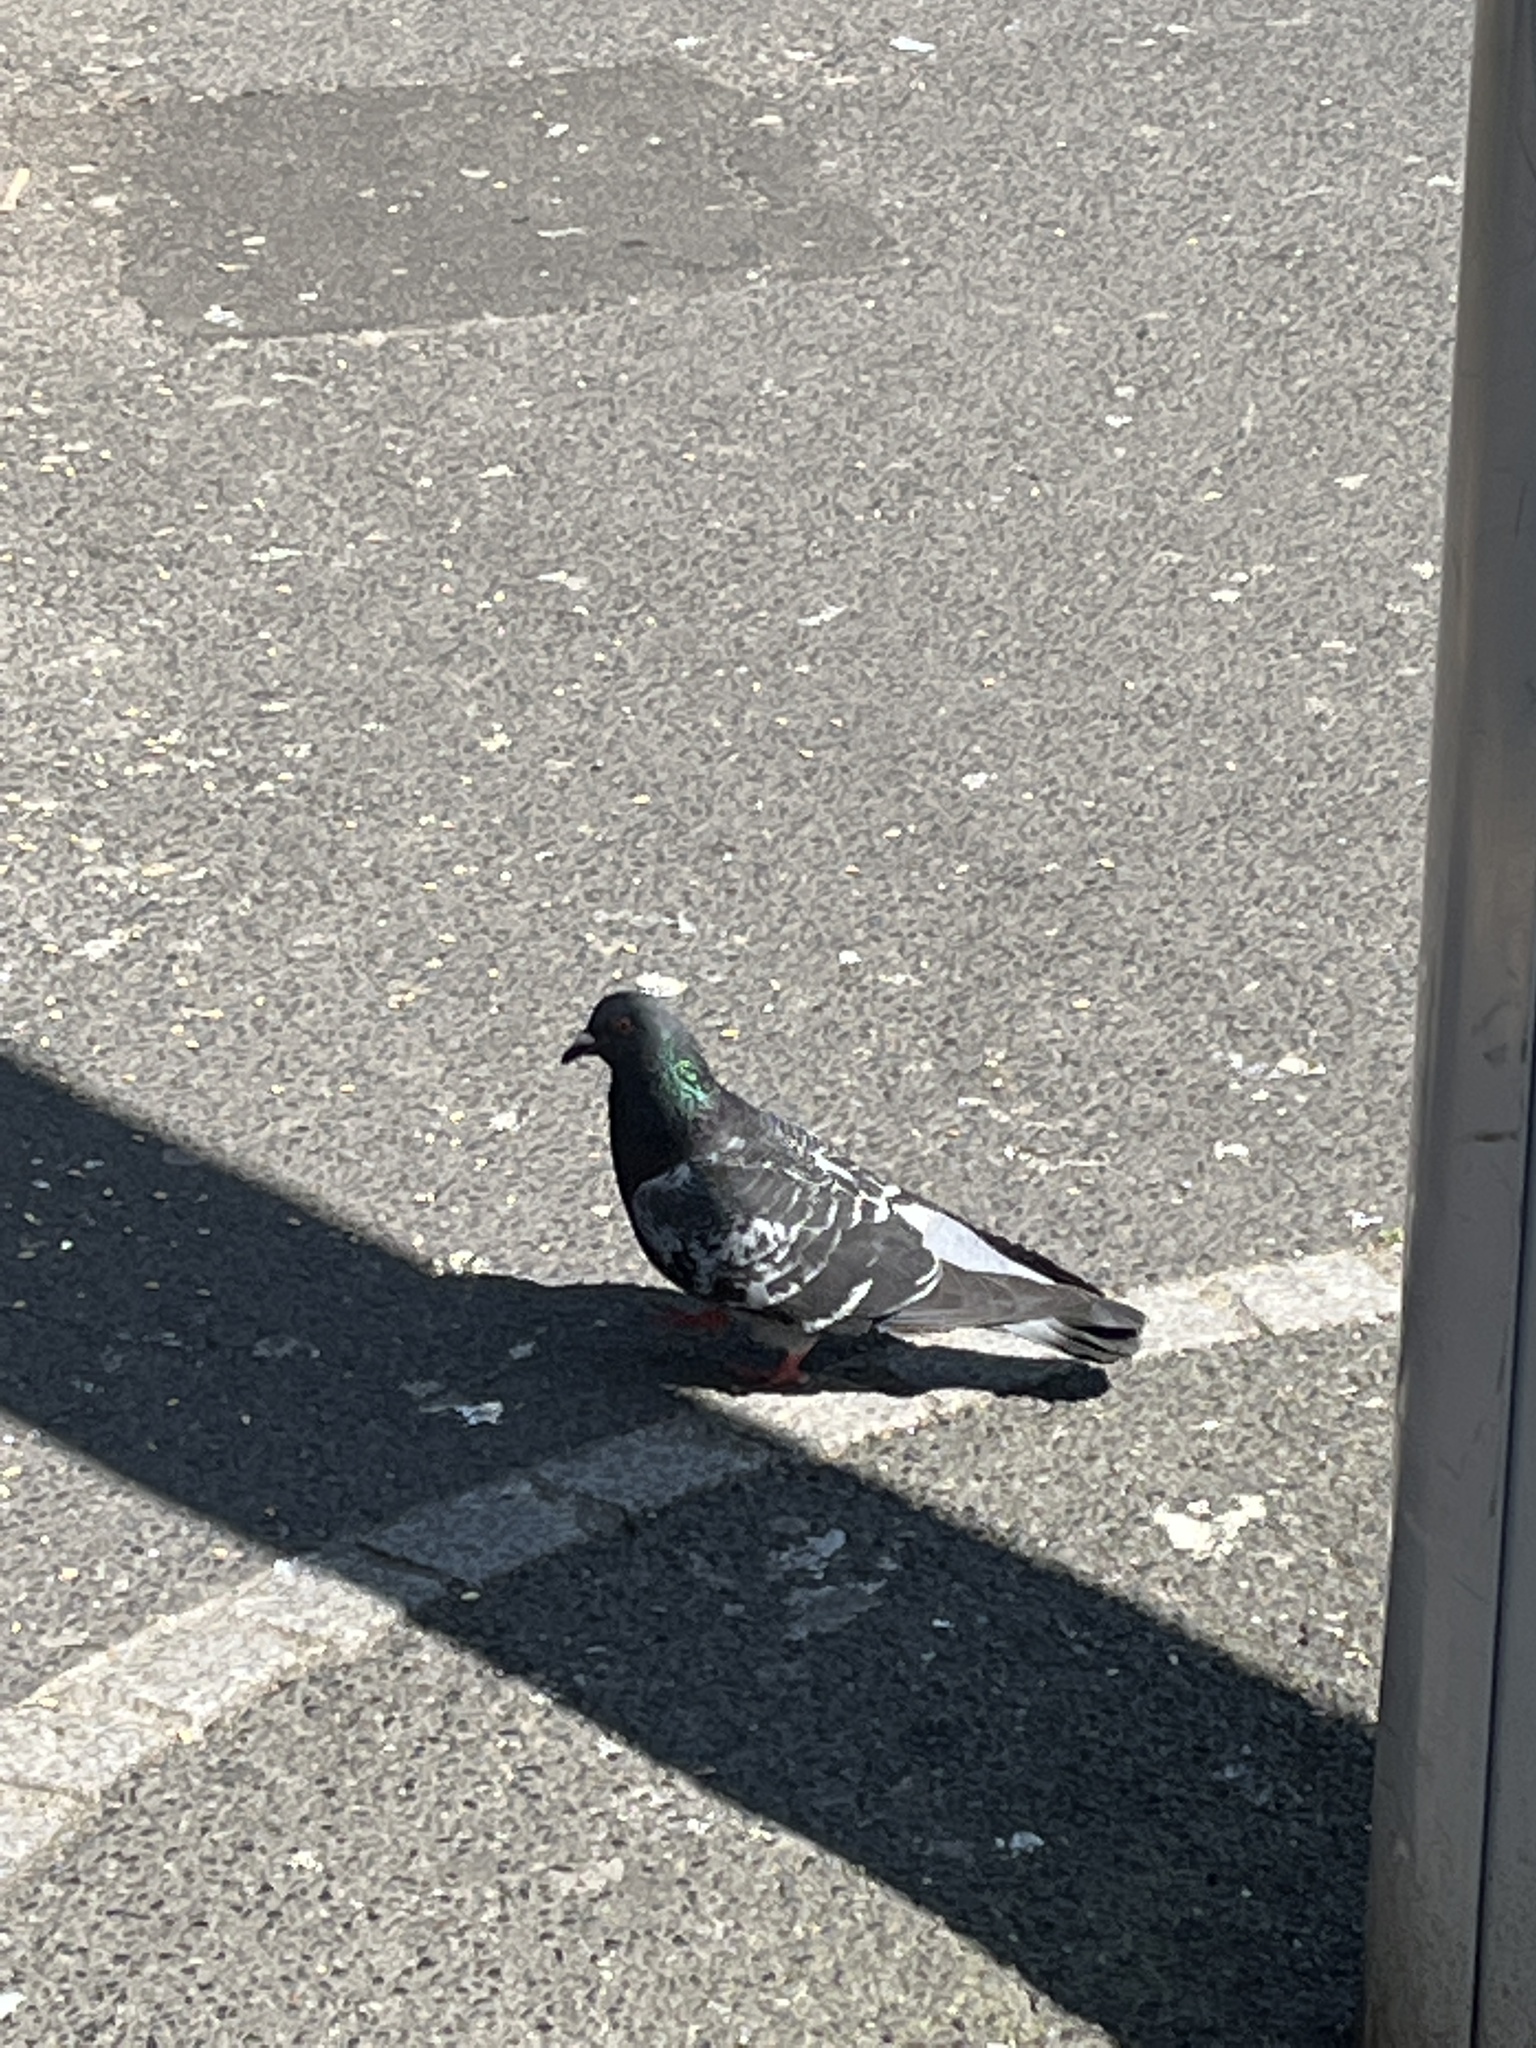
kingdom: Animalia
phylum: Chordata
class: Aves
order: Columbiformes
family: Columbidae
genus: Columba
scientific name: Columba livia
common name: Rock pigeon
